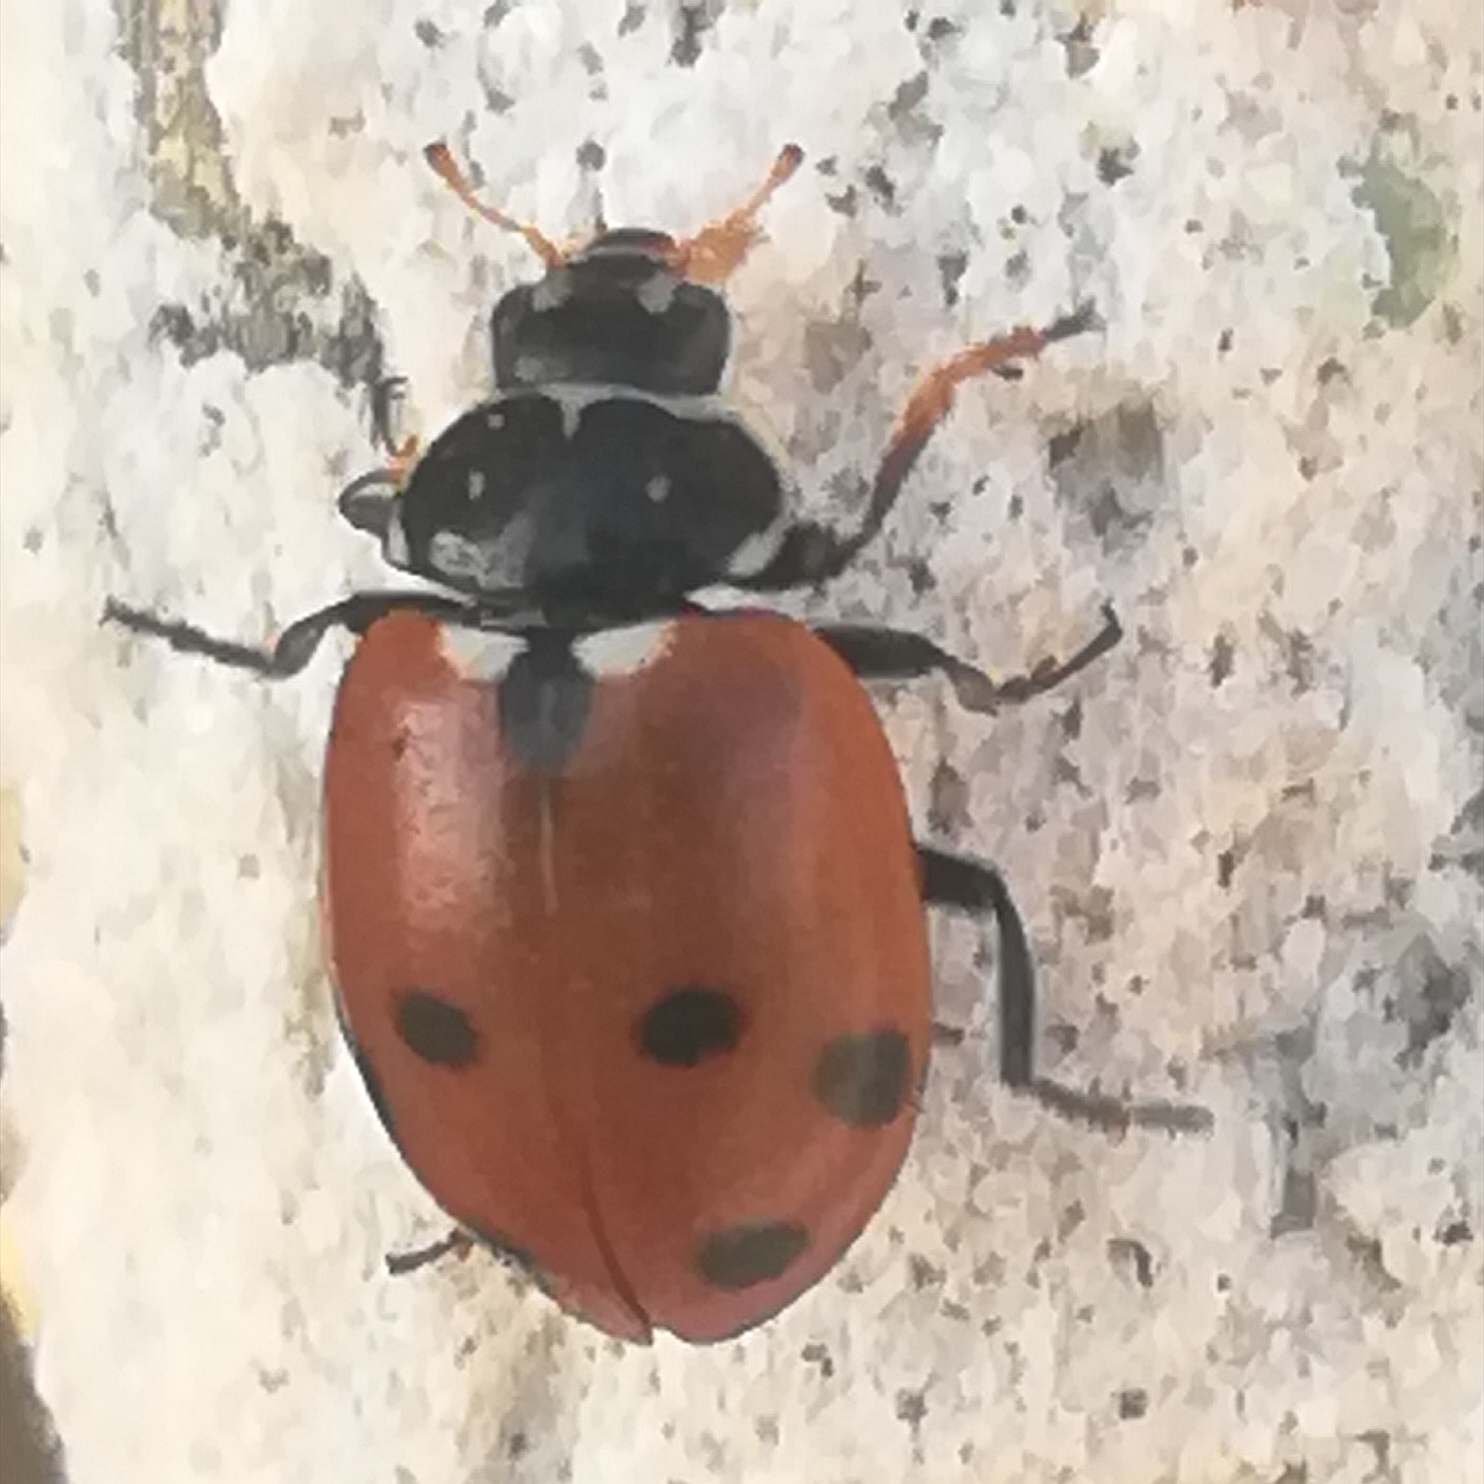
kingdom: Animalia
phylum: Arthropoda
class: Insecta
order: Coleoptera
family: Coccinellidae
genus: Hippodamia
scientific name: Hippodamia variegata
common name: Ladybird beetle
